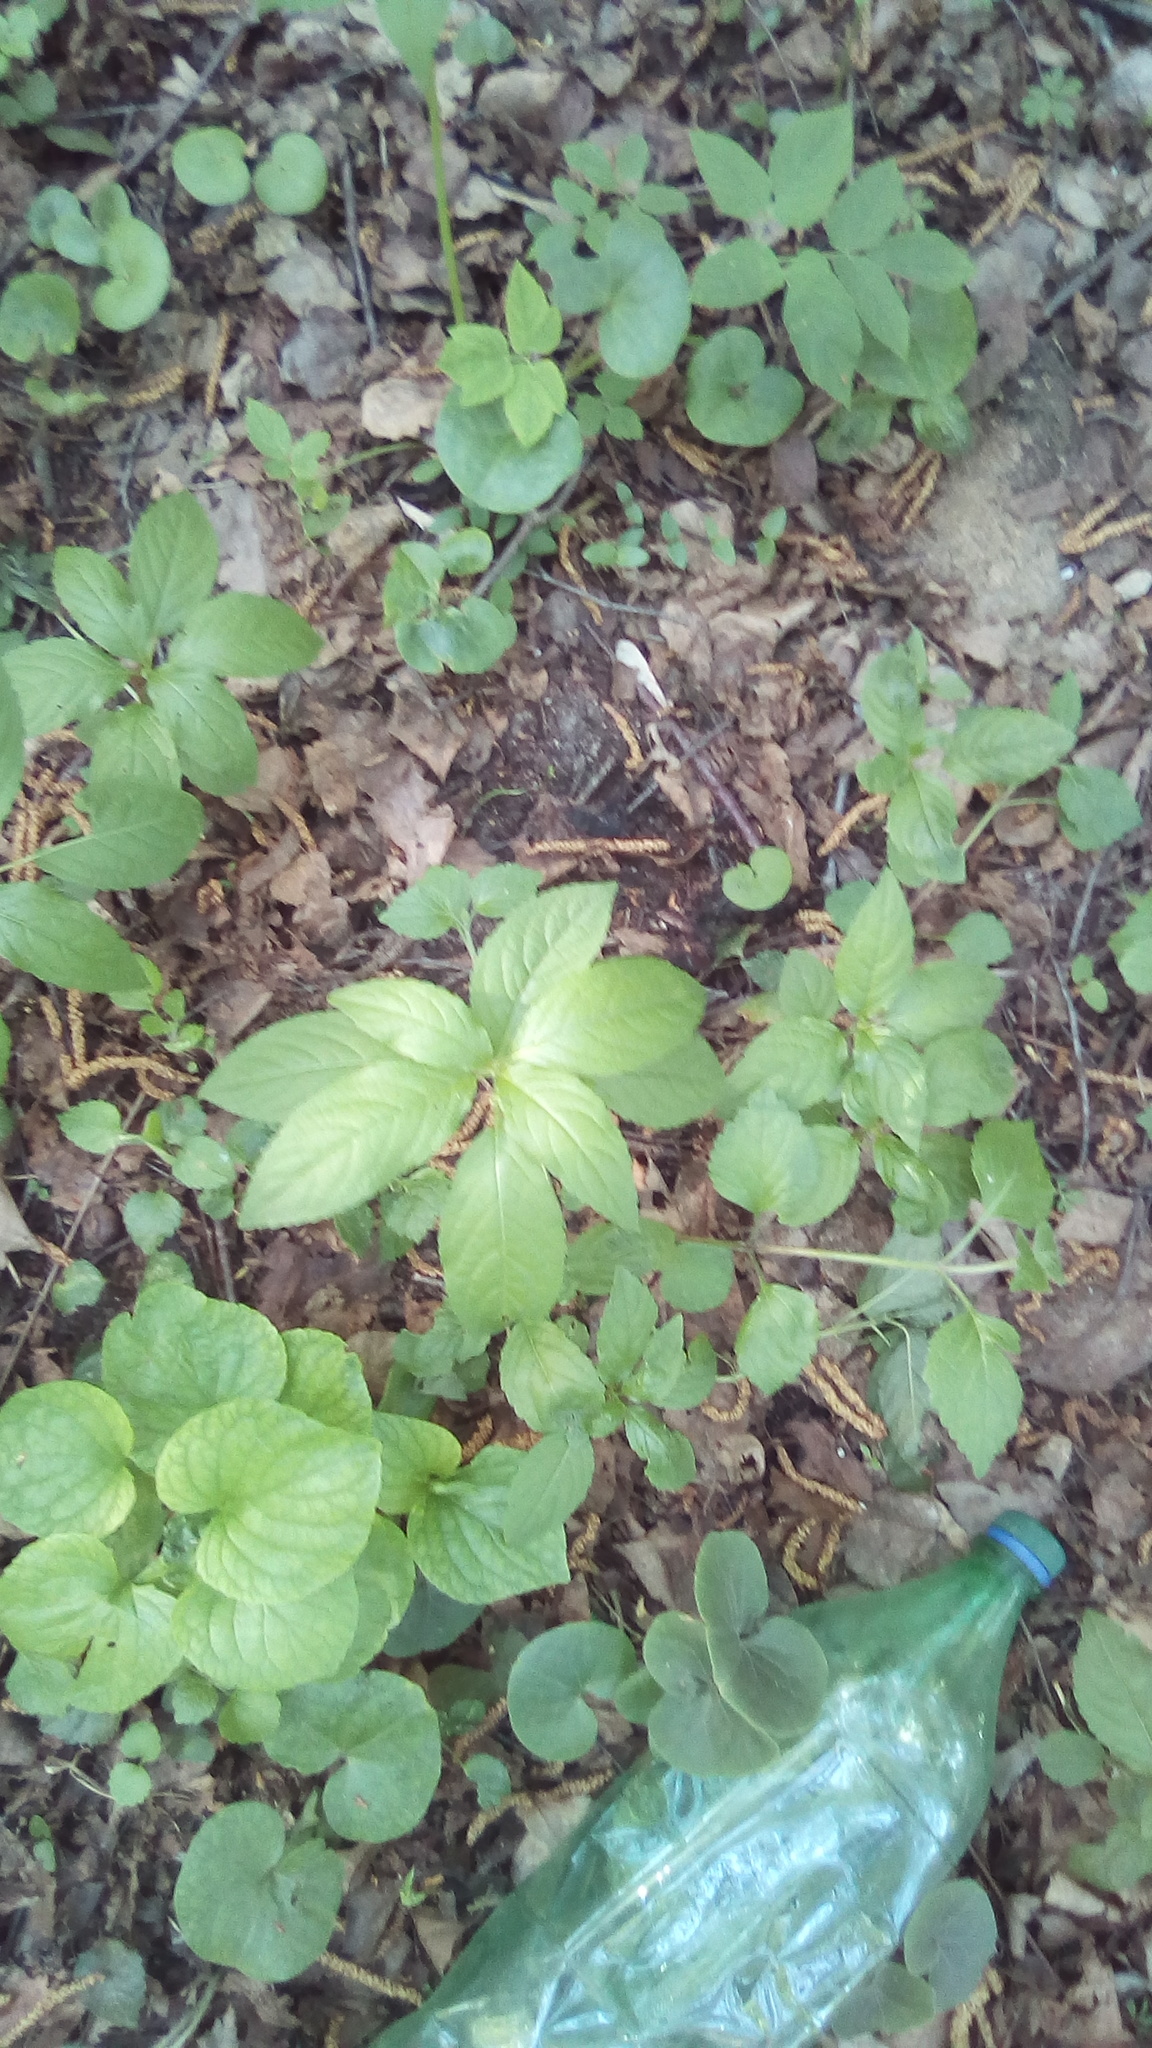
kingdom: Plantae
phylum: Tracheophyta
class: Magnoliopsida
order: Malpighiales
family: Euphorbiaceae
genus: Mercurialis
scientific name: Mercurialis perennis
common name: Dog mercury
